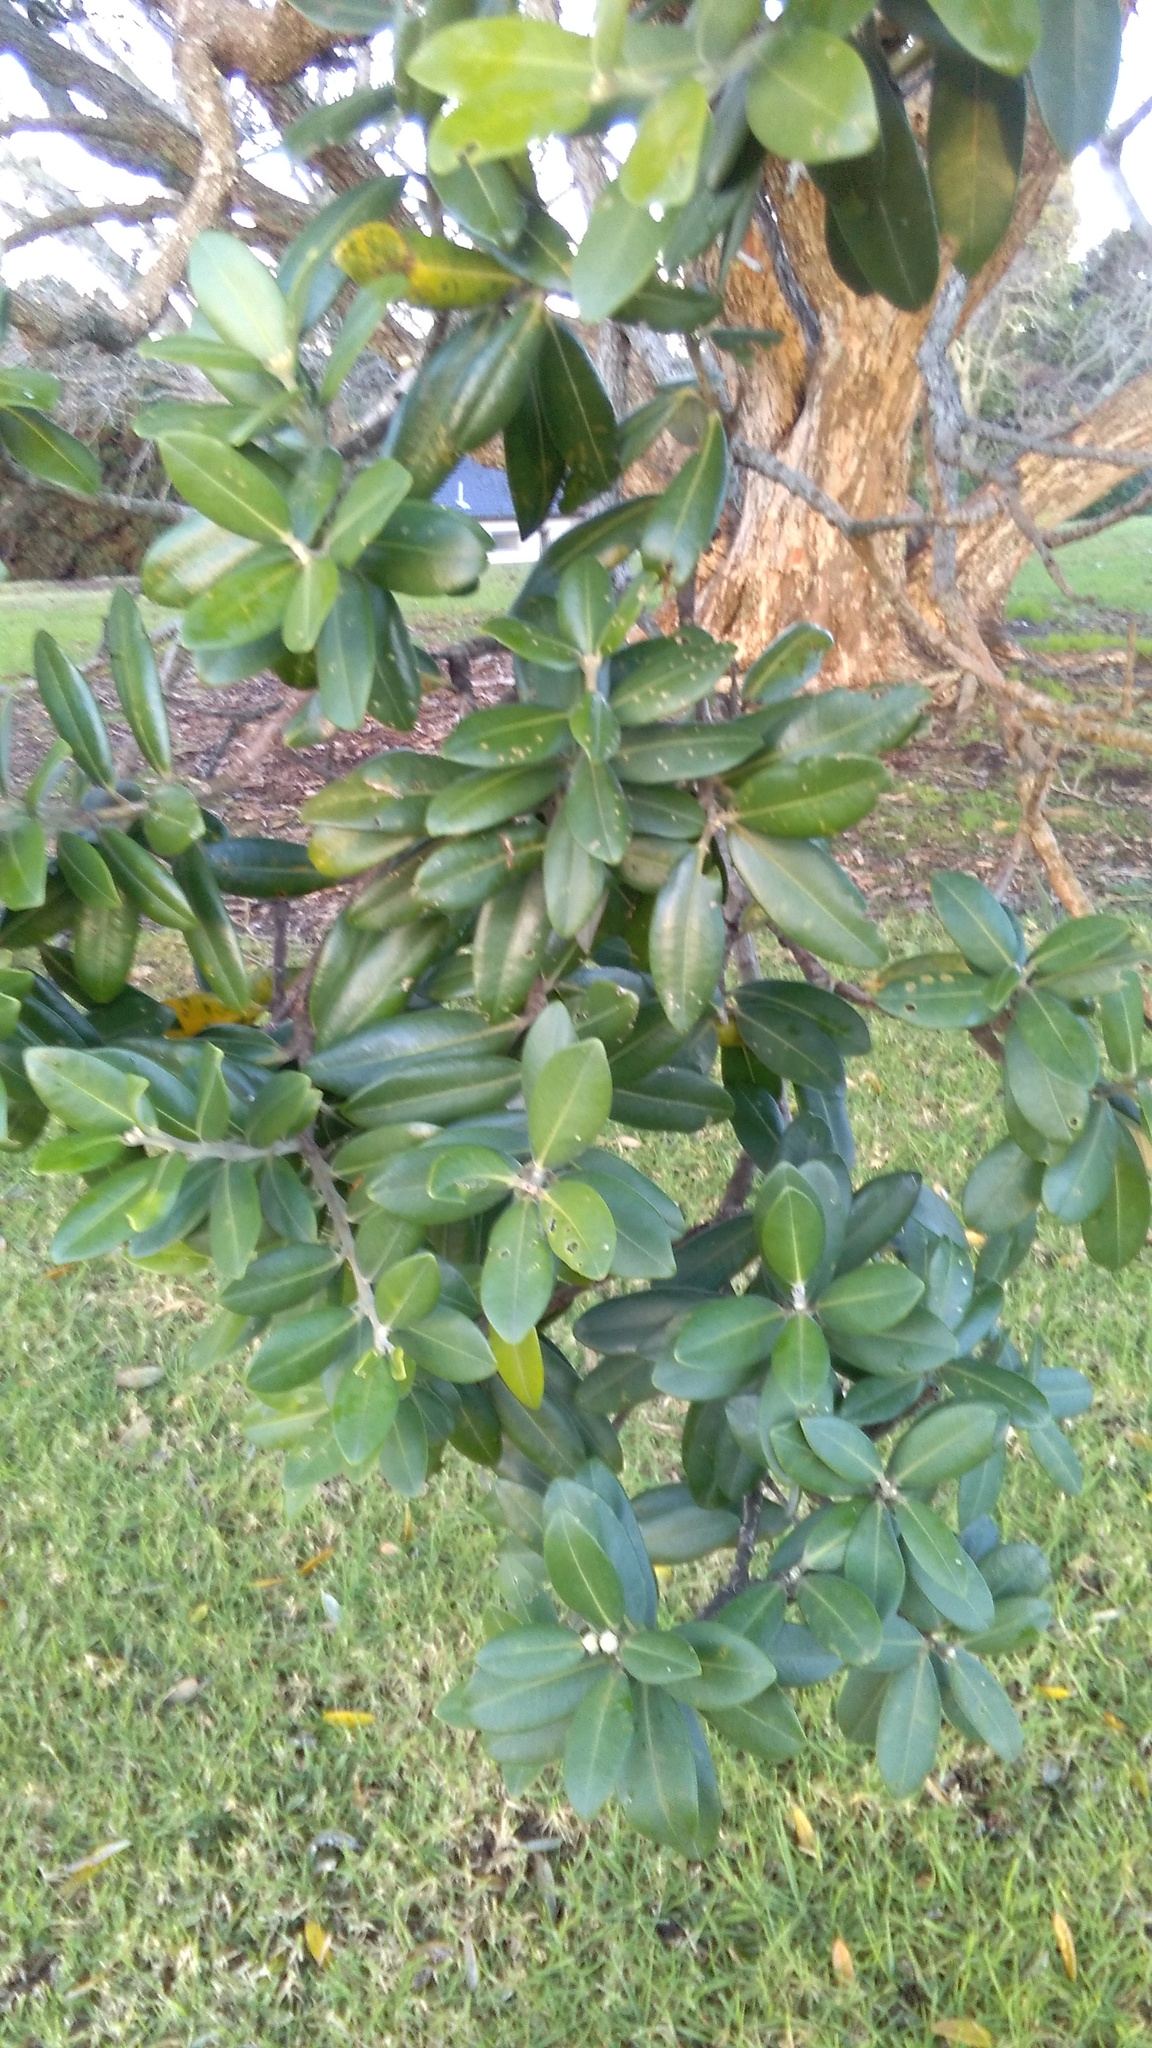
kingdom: Plantae
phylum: Tracheophyta
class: Magnoliopsida
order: Myrtales
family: Myrtaceae
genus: Metrosideros
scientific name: Metrosideros excelsa
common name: New zealand christmastree
